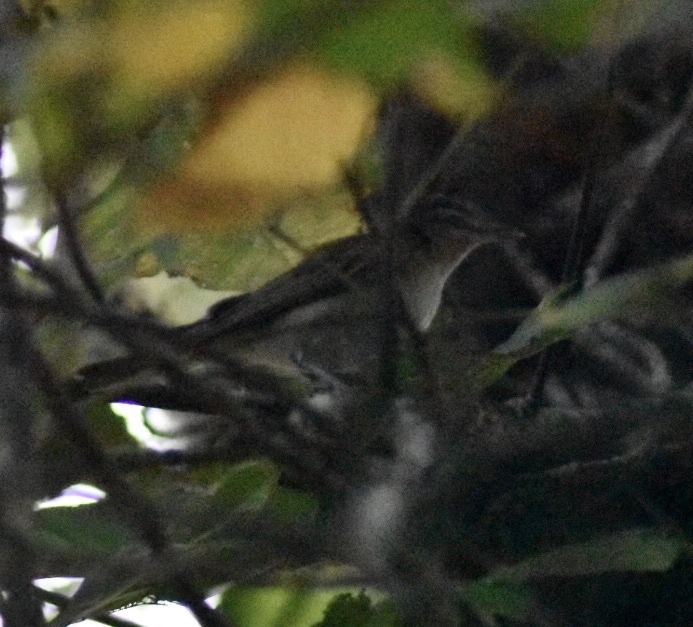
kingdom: Animalia
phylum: Chordata
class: Aves
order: Passeriformes
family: Vireonidae
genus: Vireo
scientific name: Vireo olivaceus
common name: Red-eyed vireo
